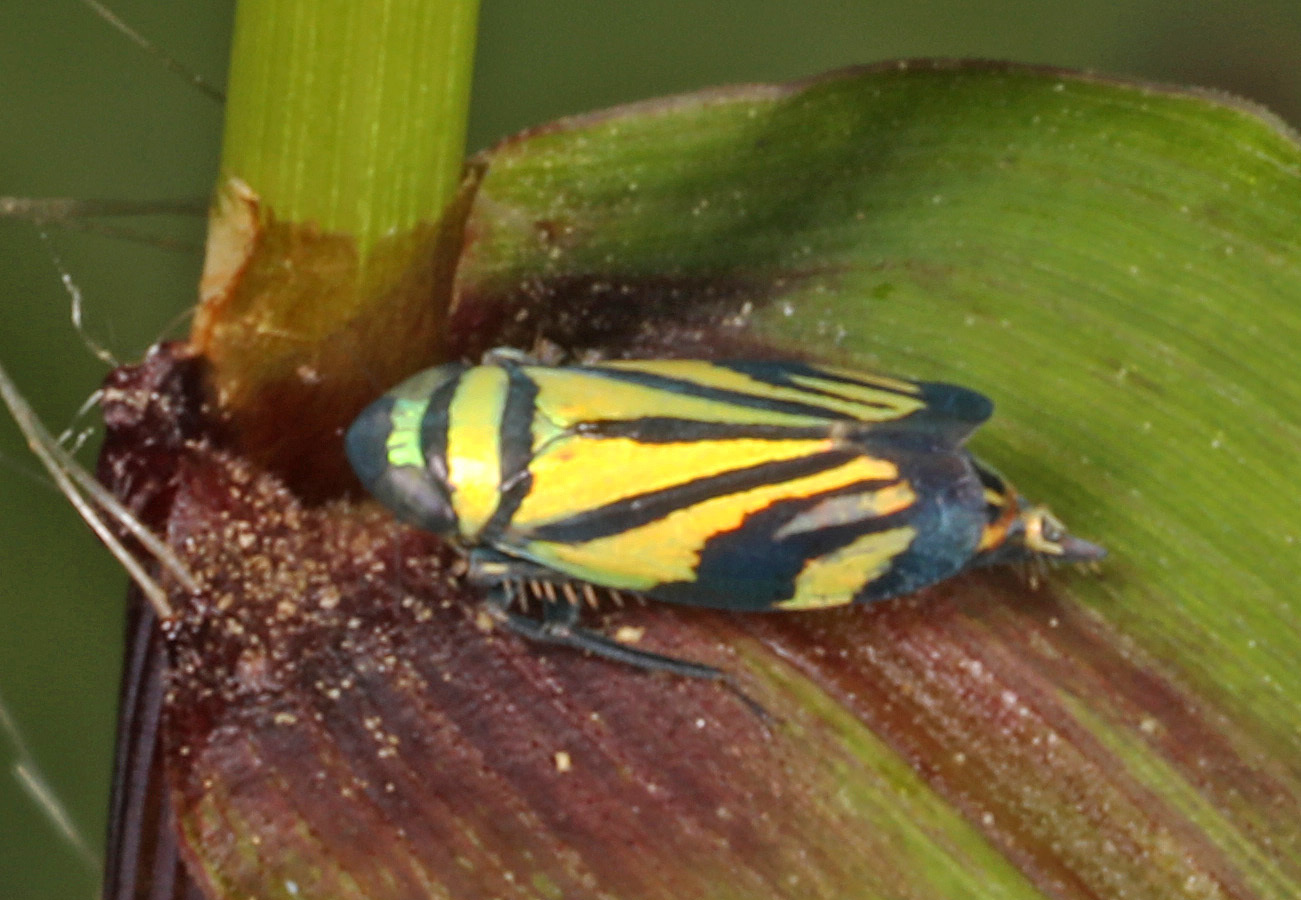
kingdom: Animalia
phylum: Arthropoda
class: Insecta
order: Hemiptera
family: Cicadellidae
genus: Stirellus
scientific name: Stirellus bicolor
